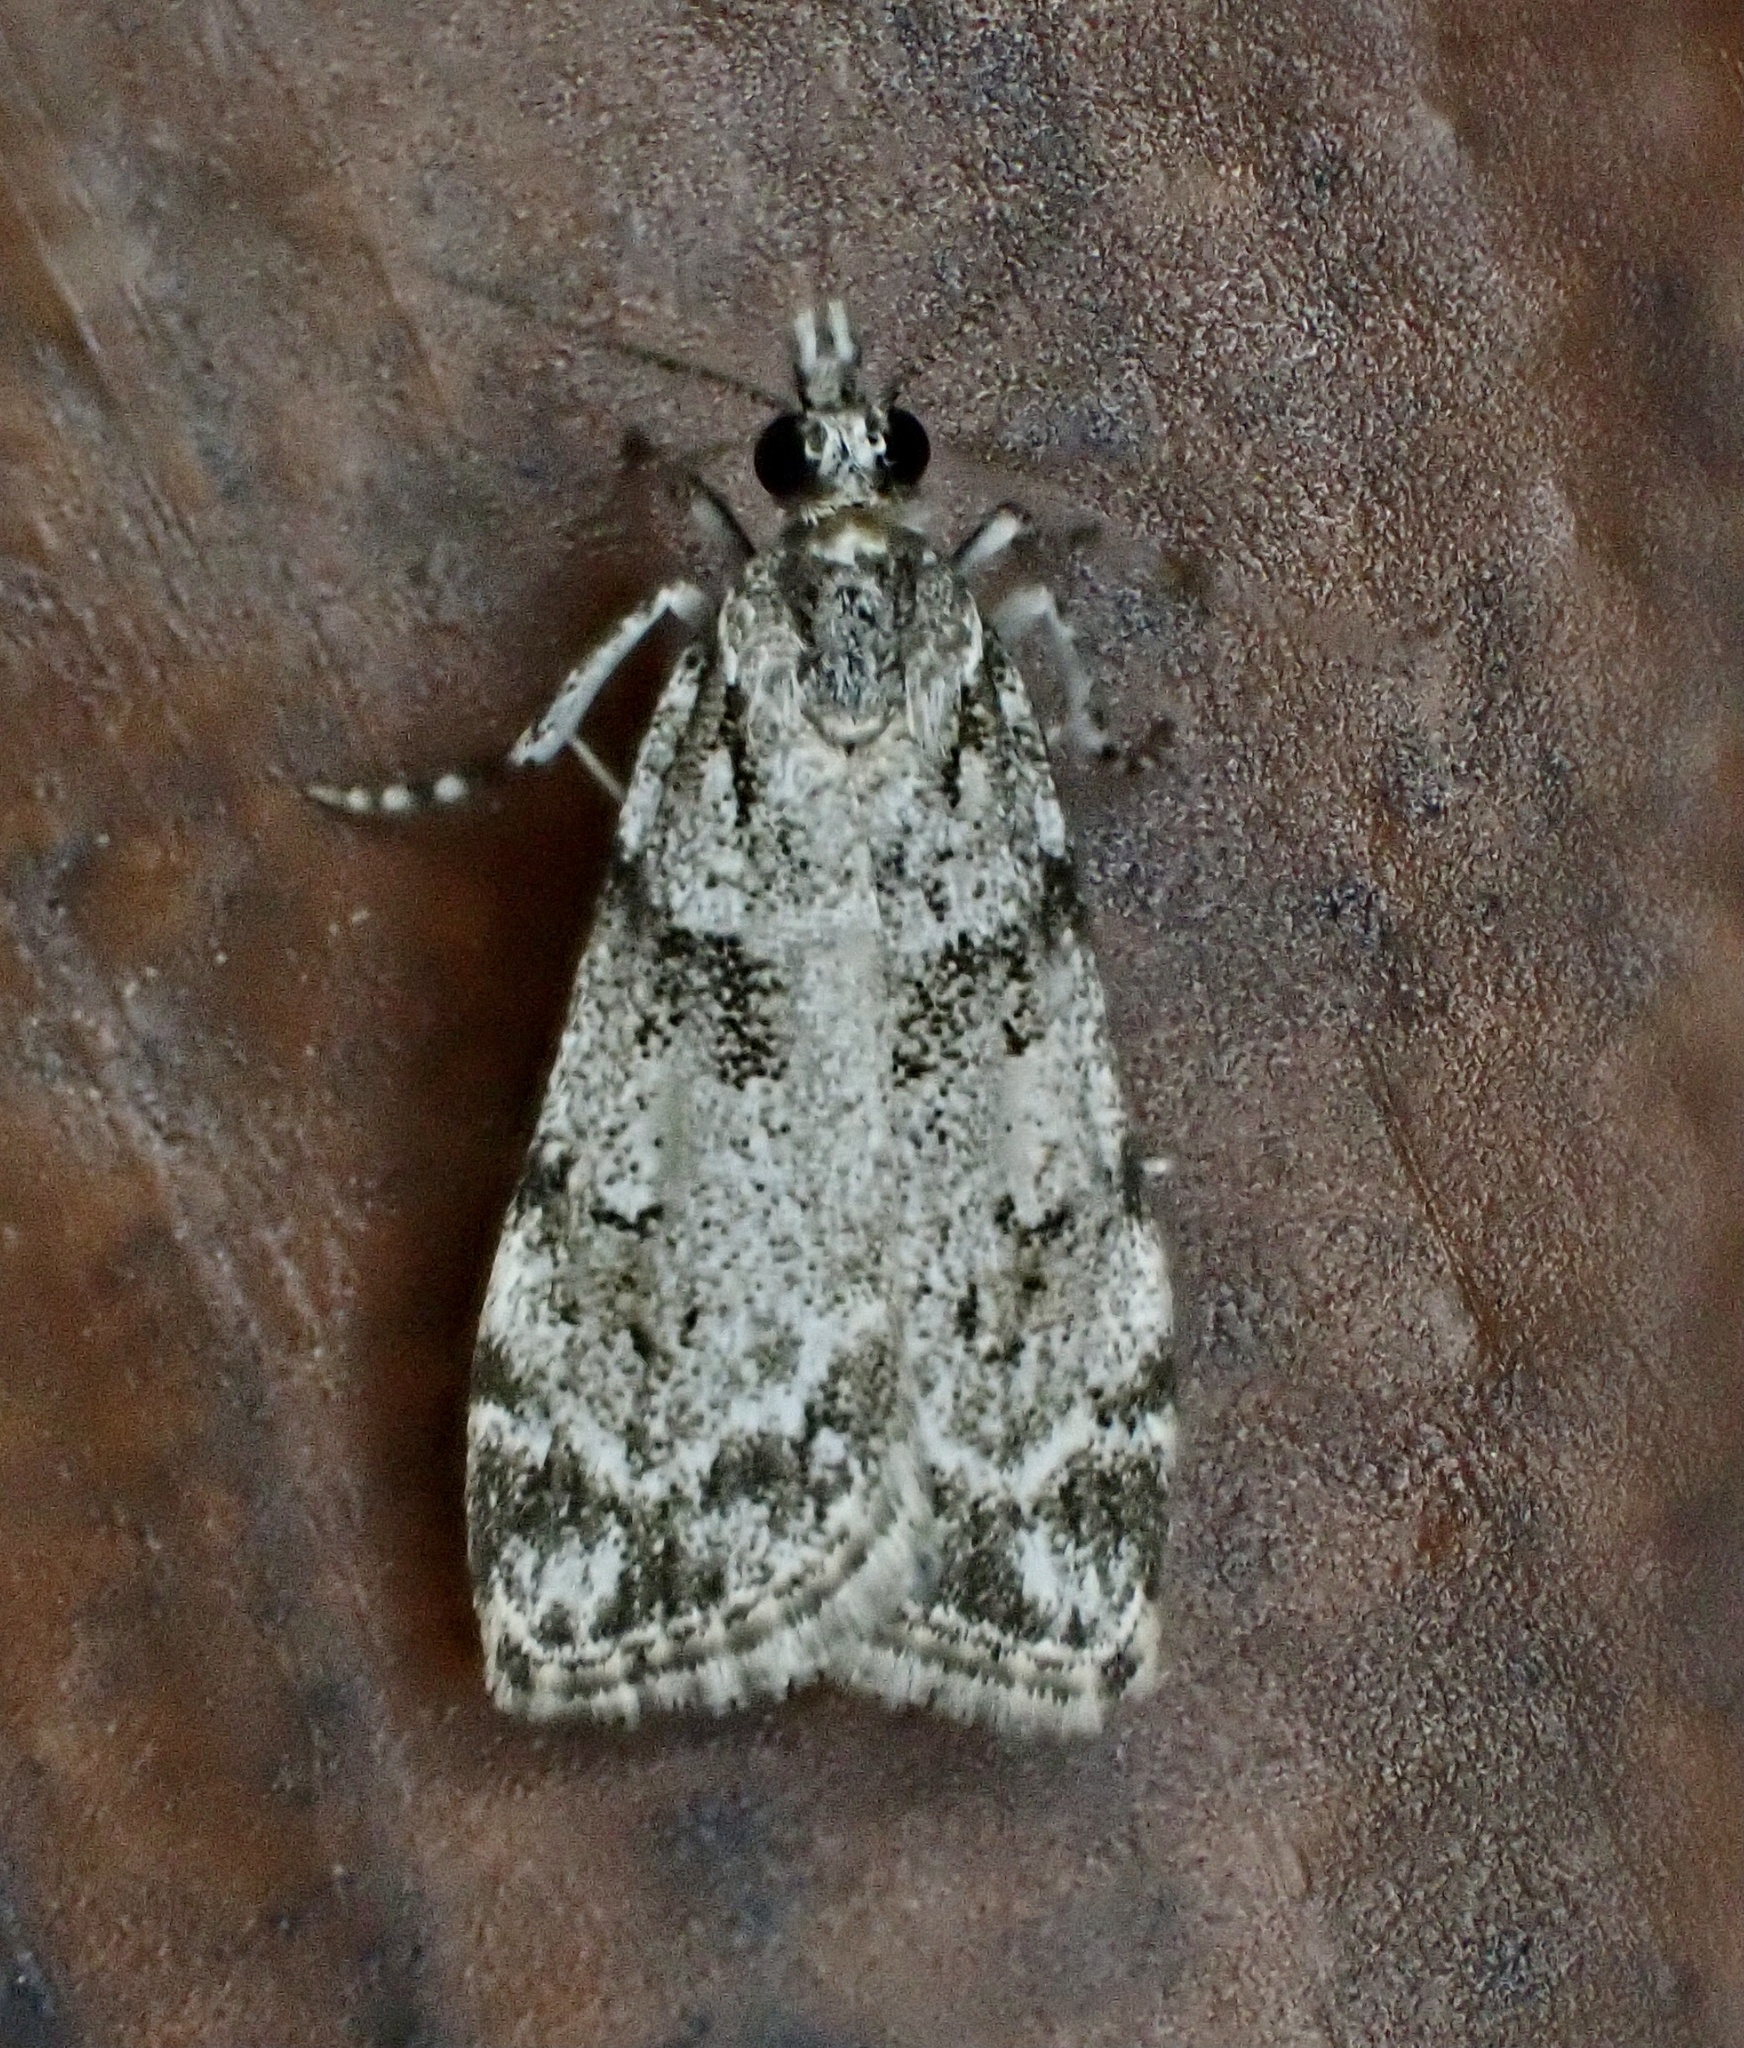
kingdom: Animalia
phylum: Arthropoda
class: Insecta
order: Lepidoptera
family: Crambidae
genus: Scoparia
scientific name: Scoparia biplagialis
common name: Double-striped scoparia moth
